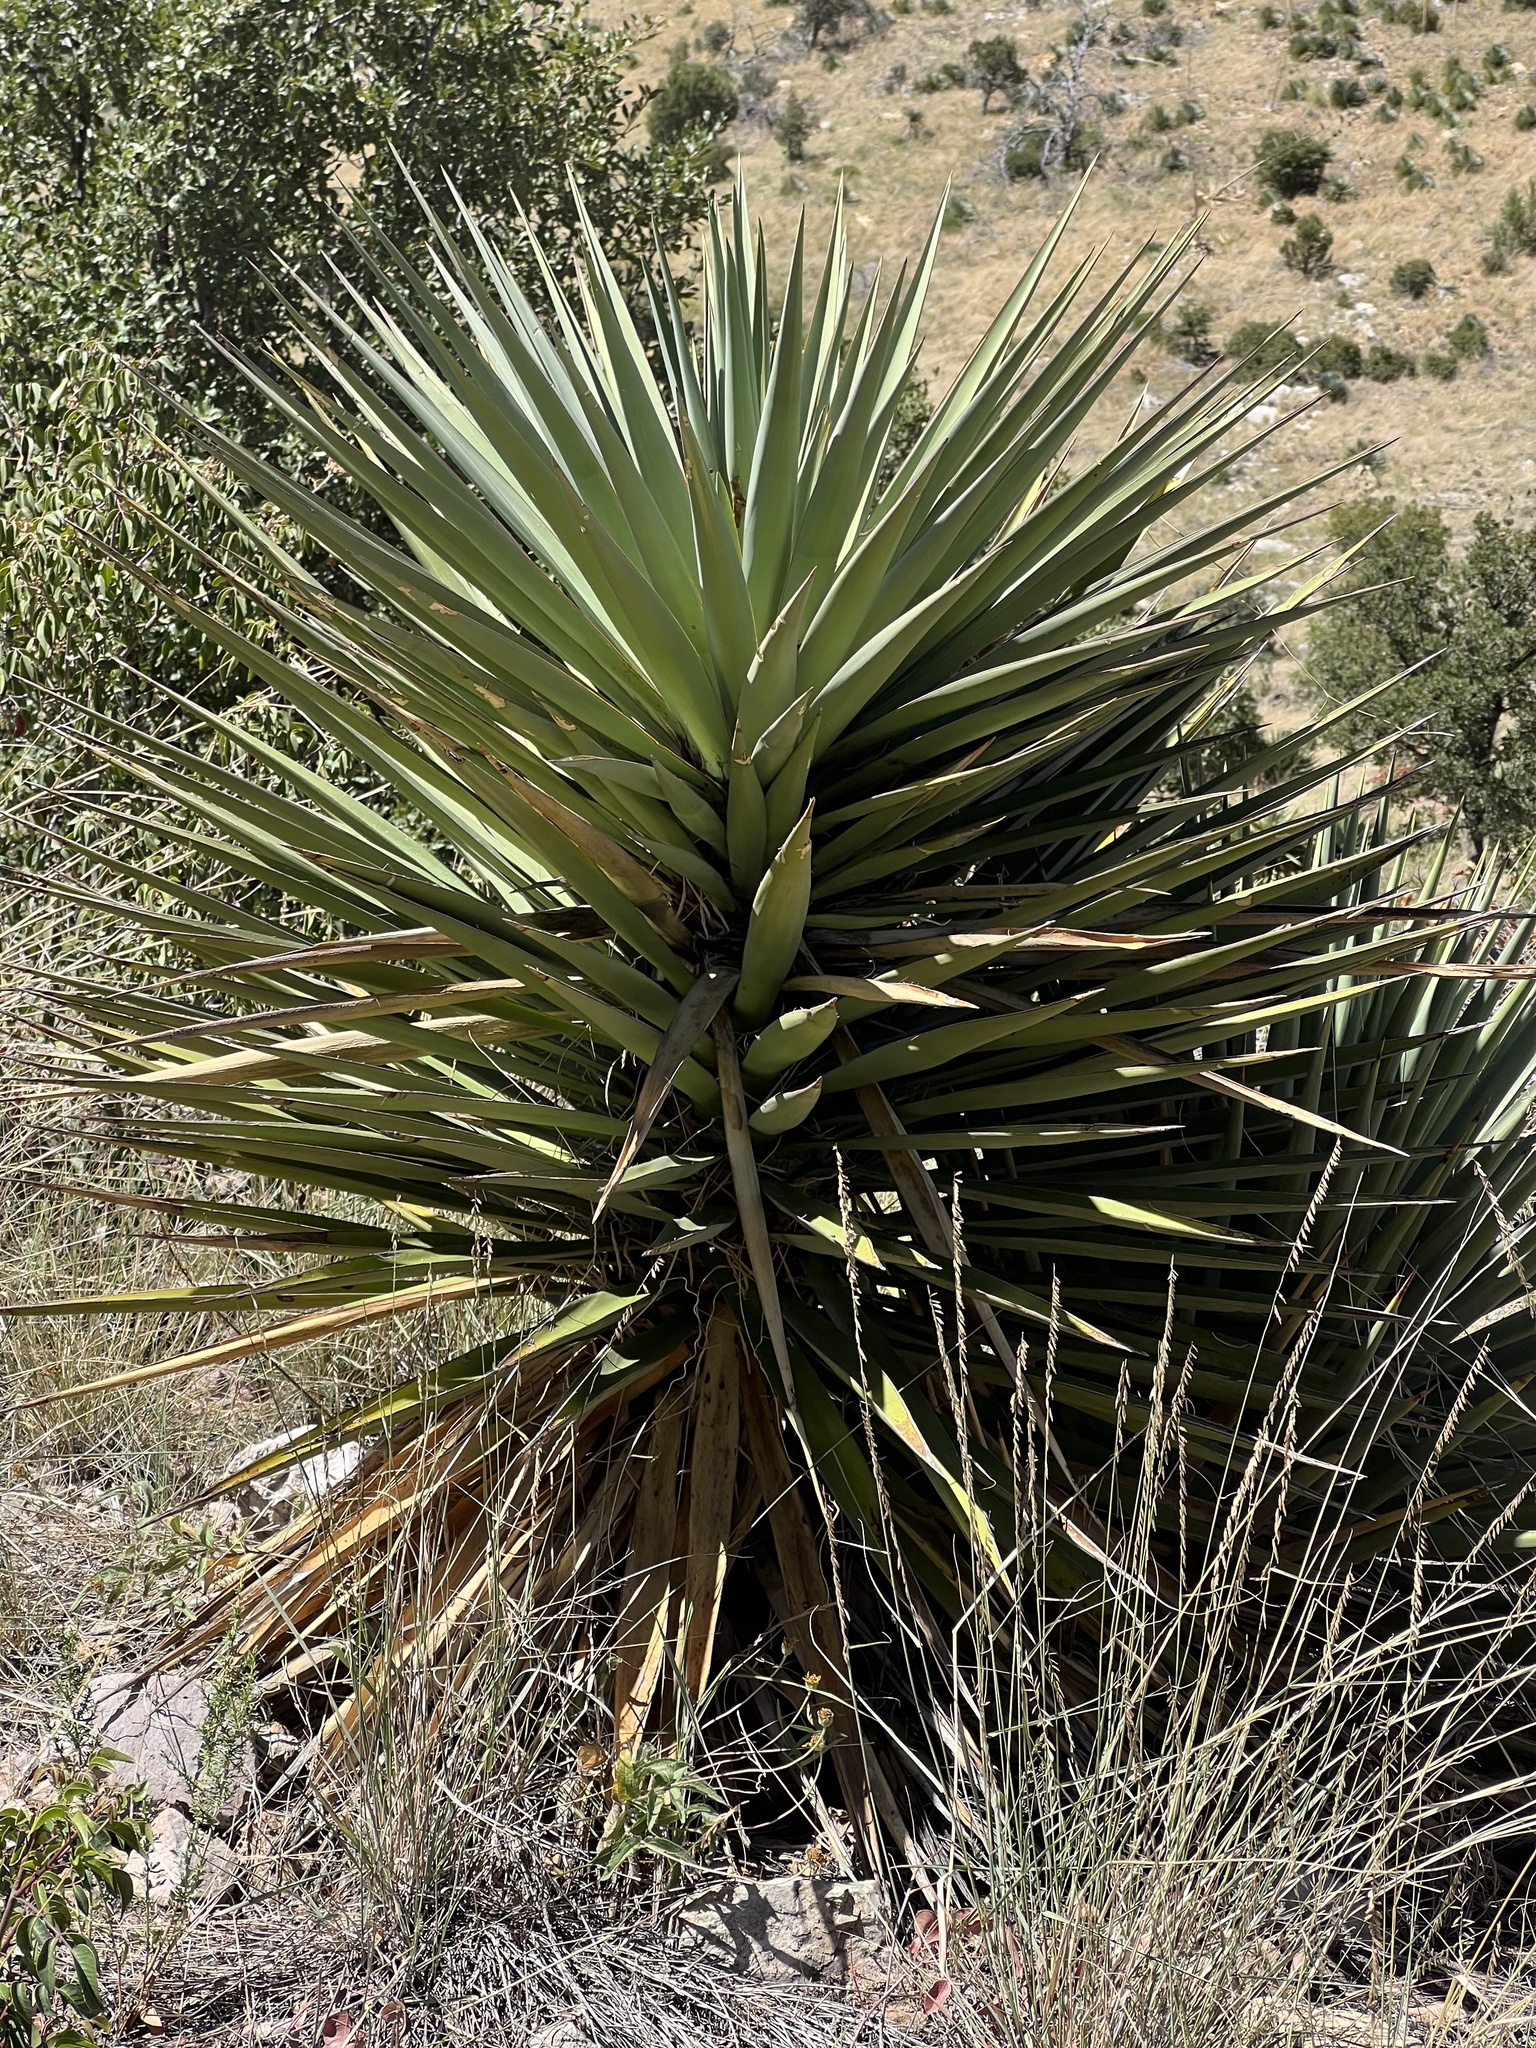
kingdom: Plantae
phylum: Tracheophyta
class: Liliopsida
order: Asparagales
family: Asparagaceae
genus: Yucca
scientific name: Yucca schottii
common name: Hoary yucca
